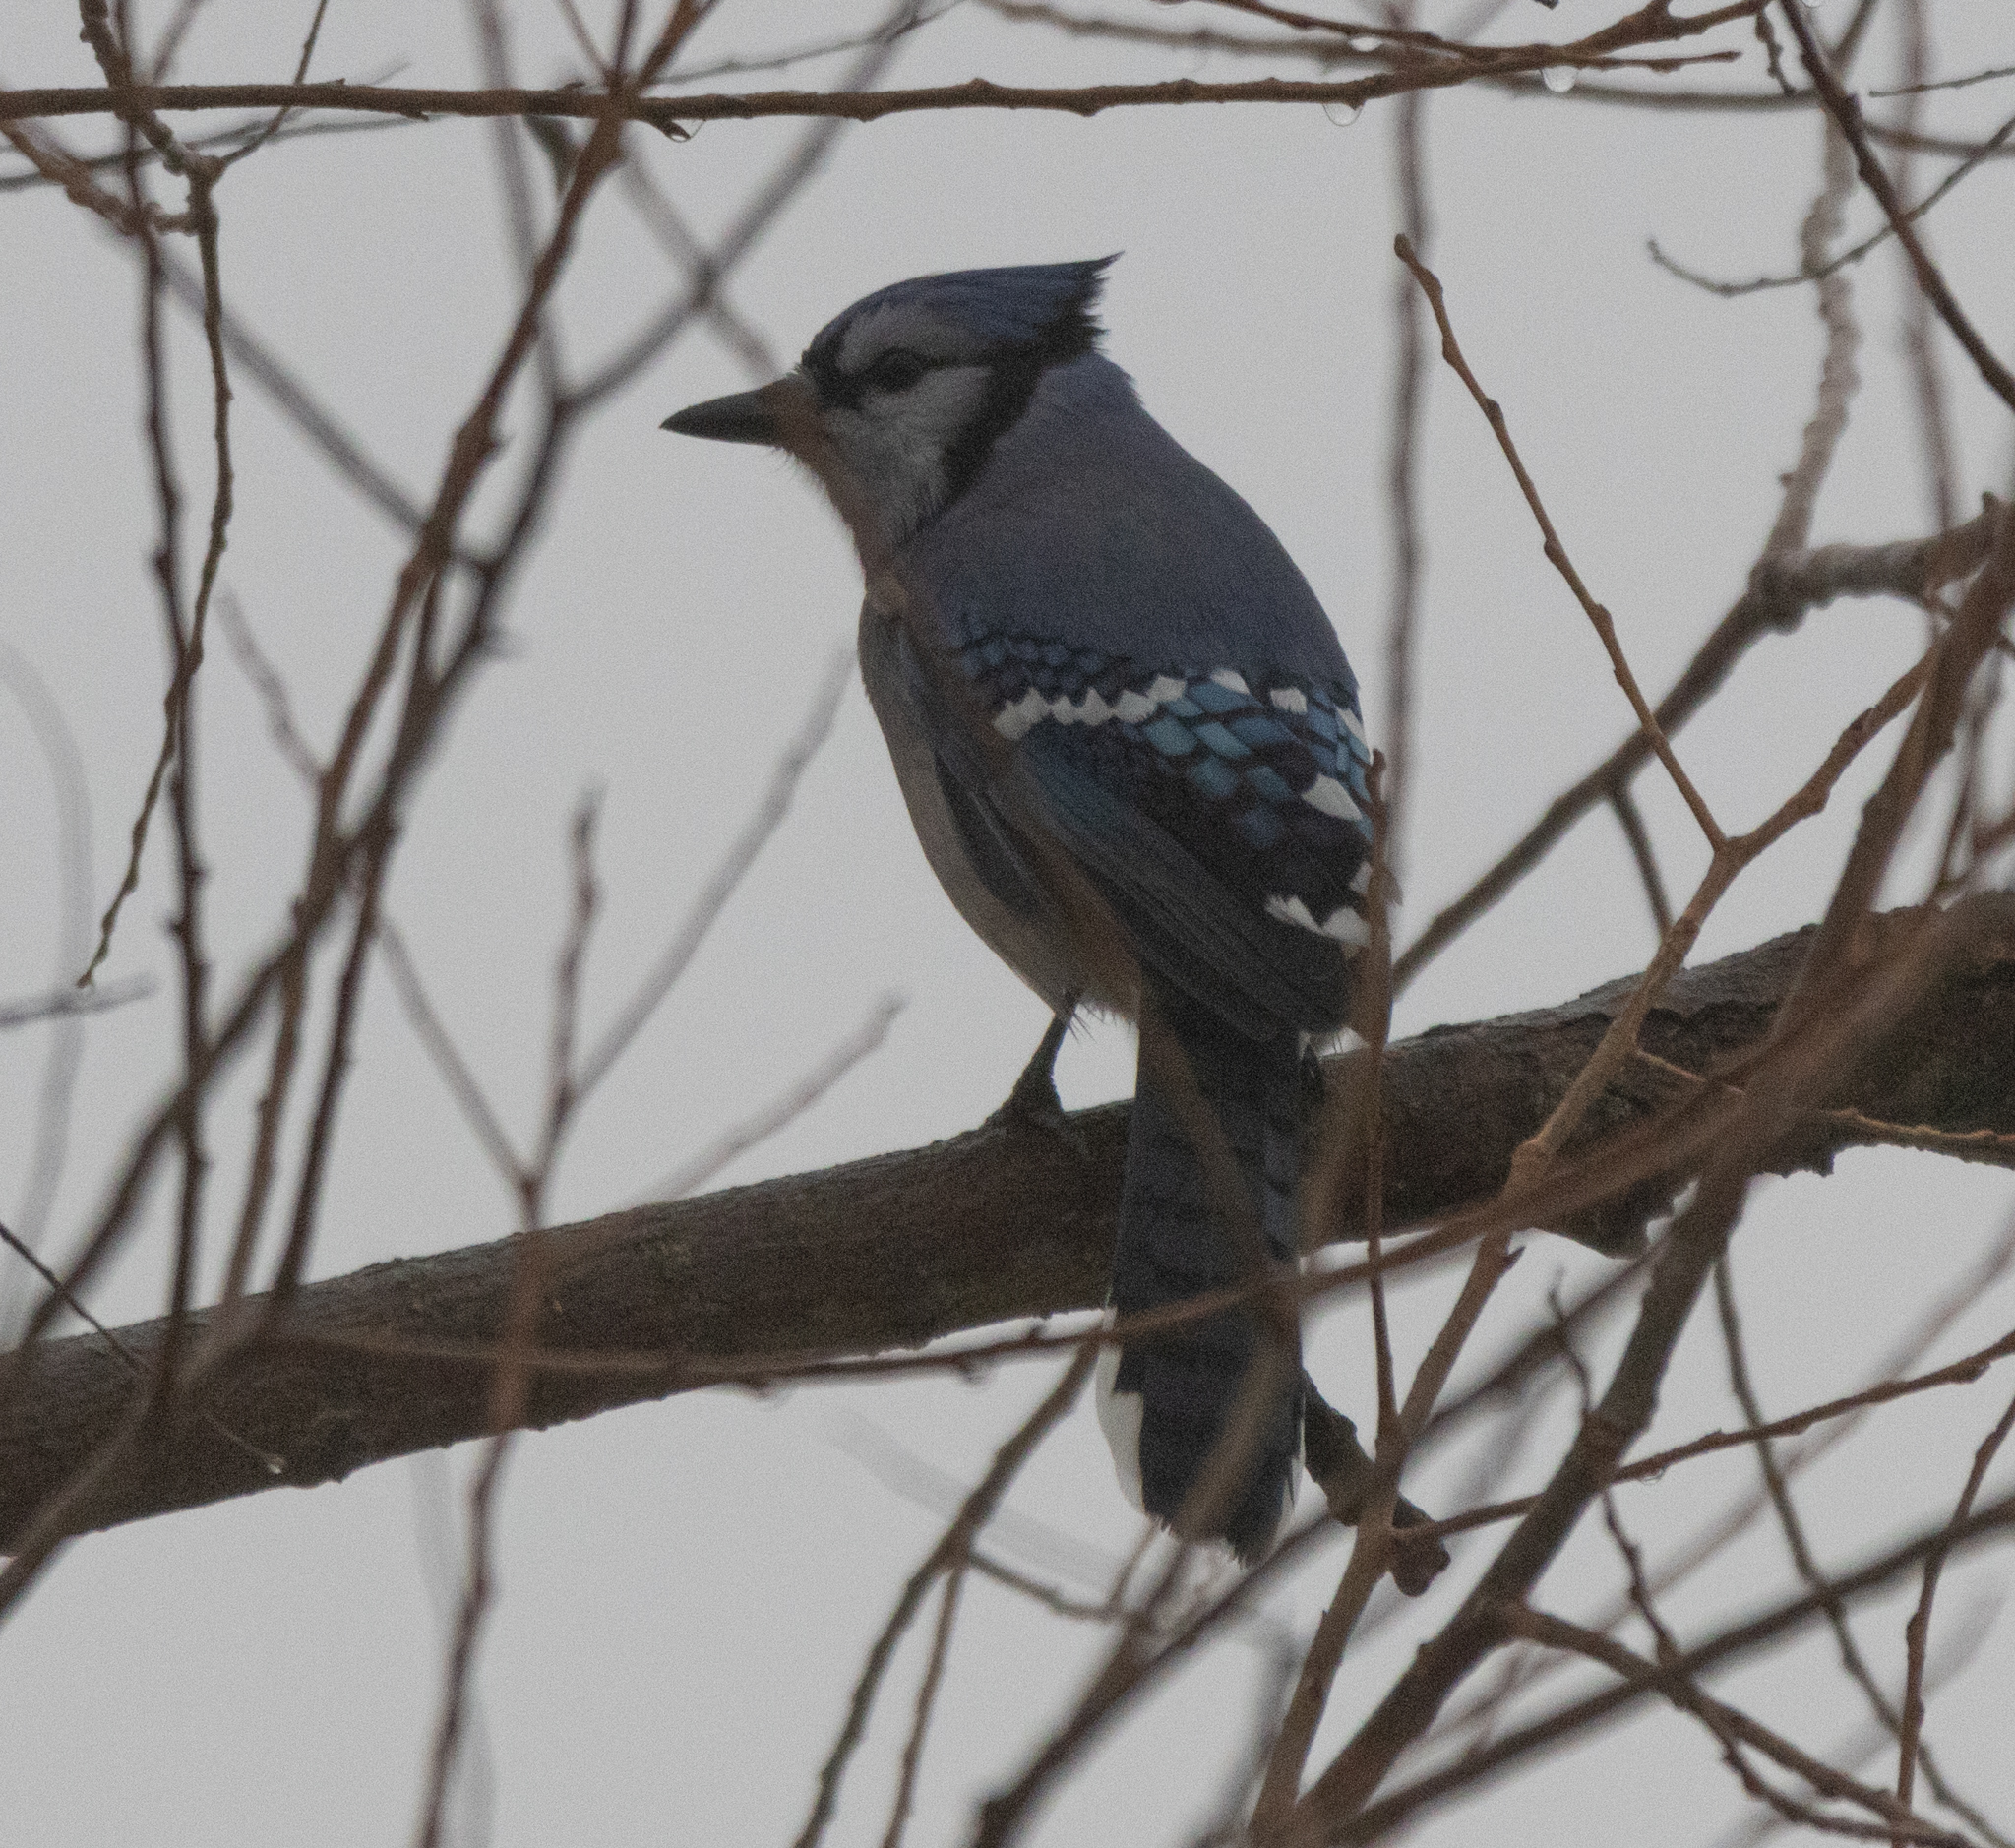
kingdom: Animalia
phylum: Chordata
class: Aves
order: Passeriformes
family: Corvidae
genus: Cyanocitta
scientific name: Cyanocitta cristata
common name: Blue jay
